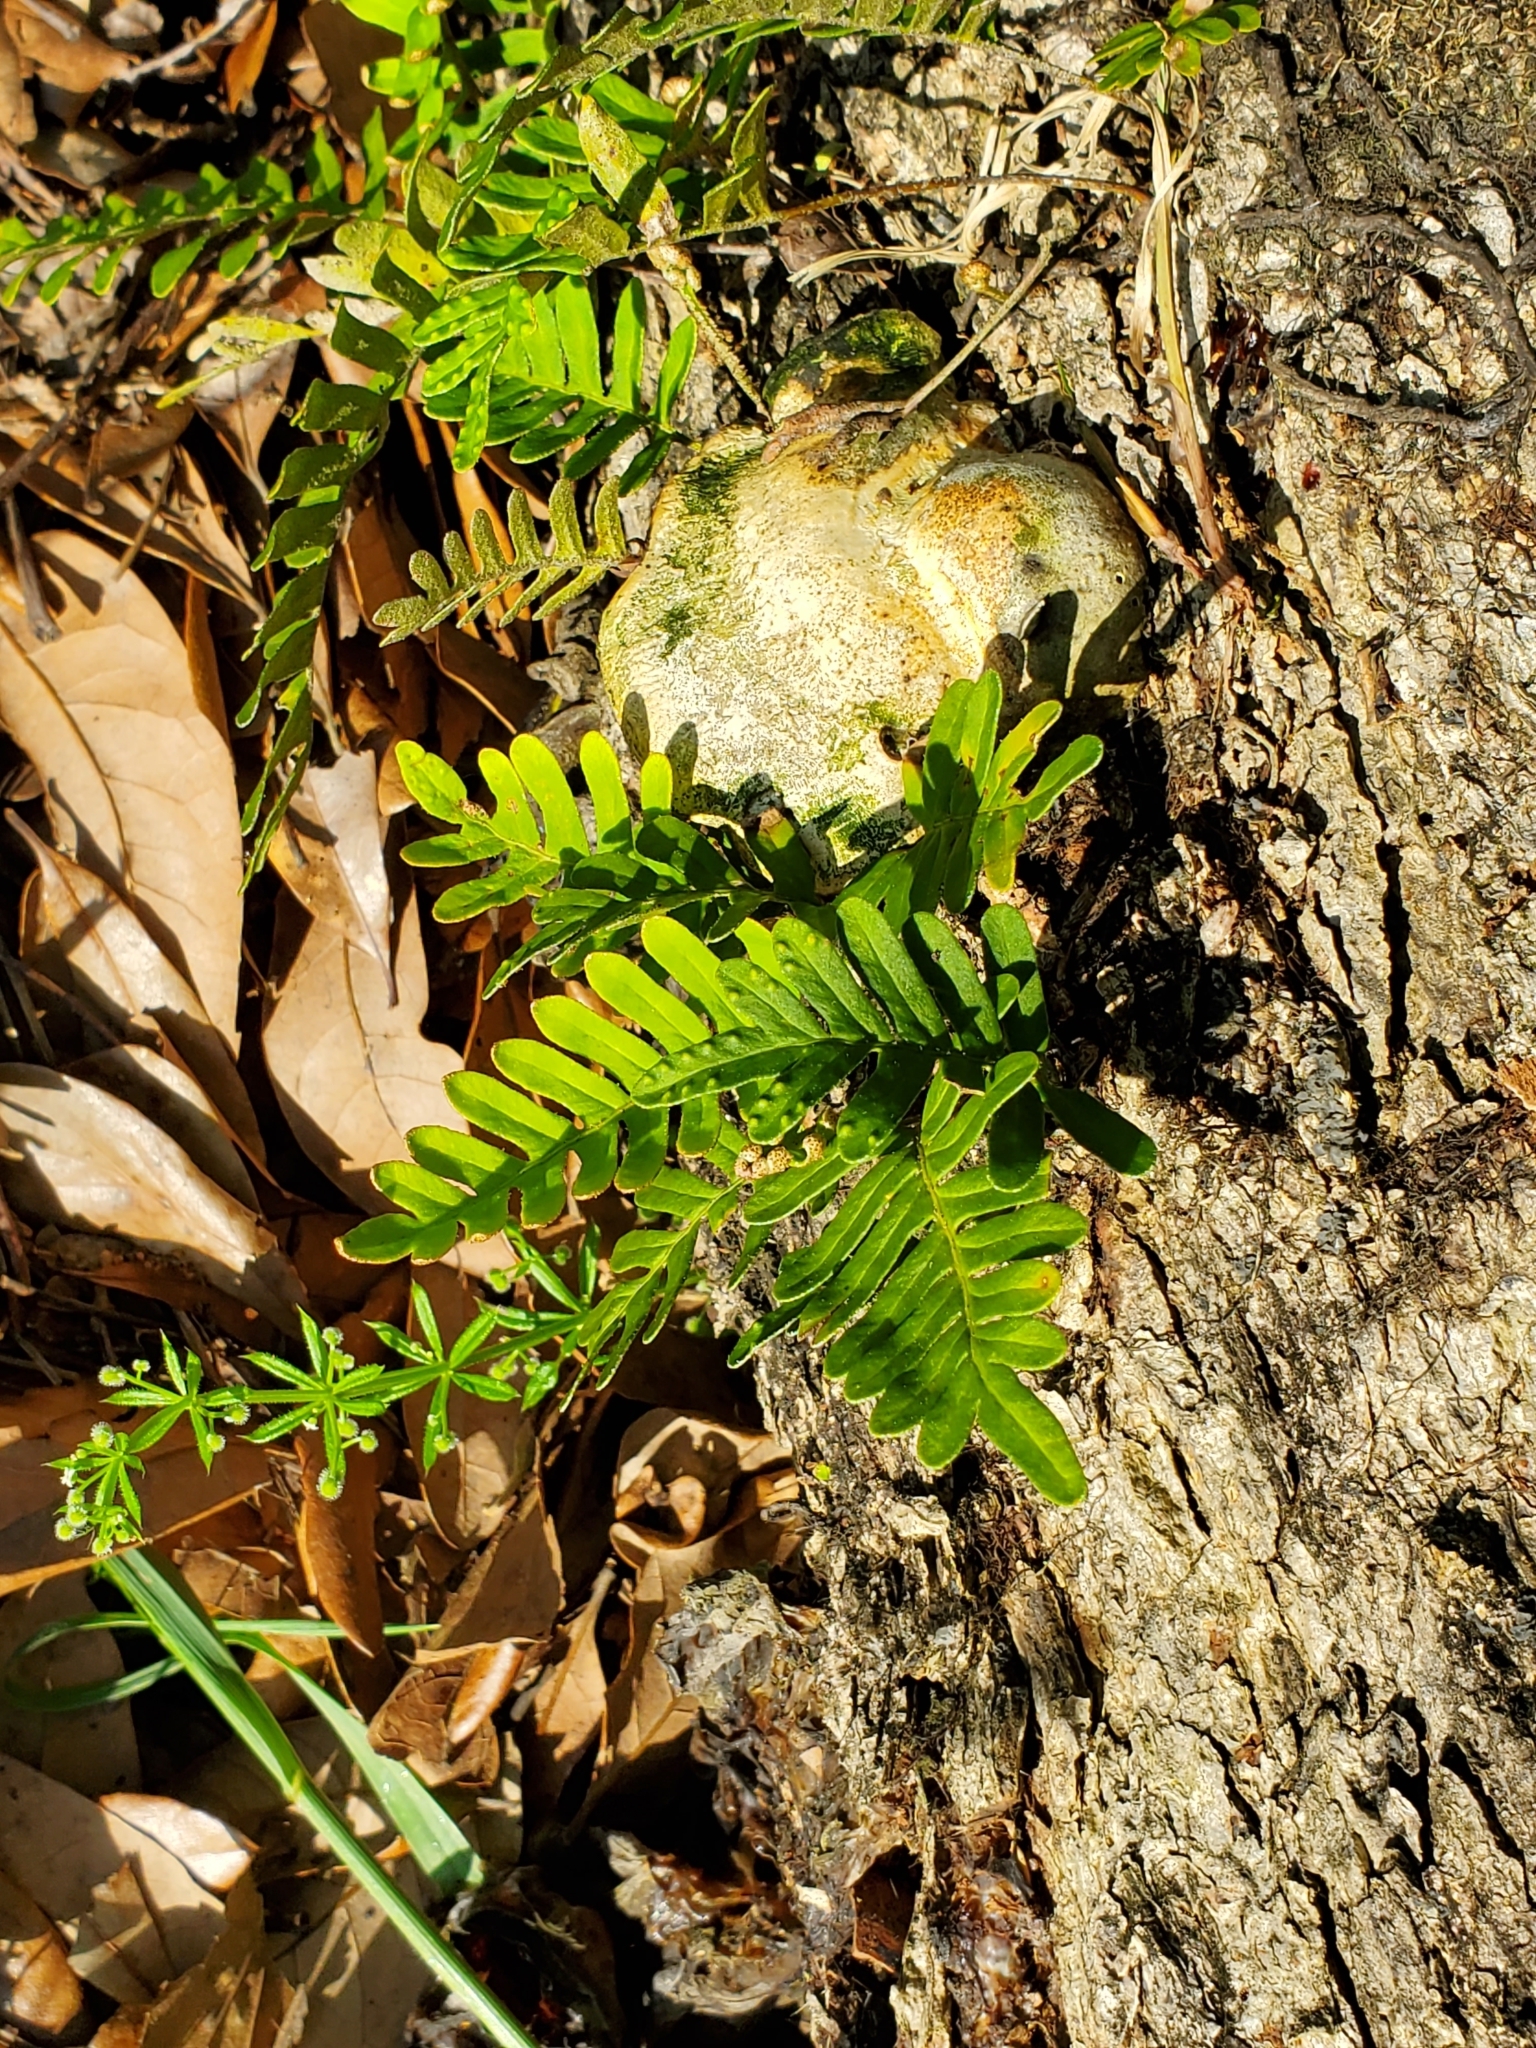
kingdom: Plantae
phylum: Tracheophyta
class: Polypodiopsida
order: Polypodiales
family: Polypodiaceae
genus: Pleopeltis
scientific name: Pleopeltis michauxiana
